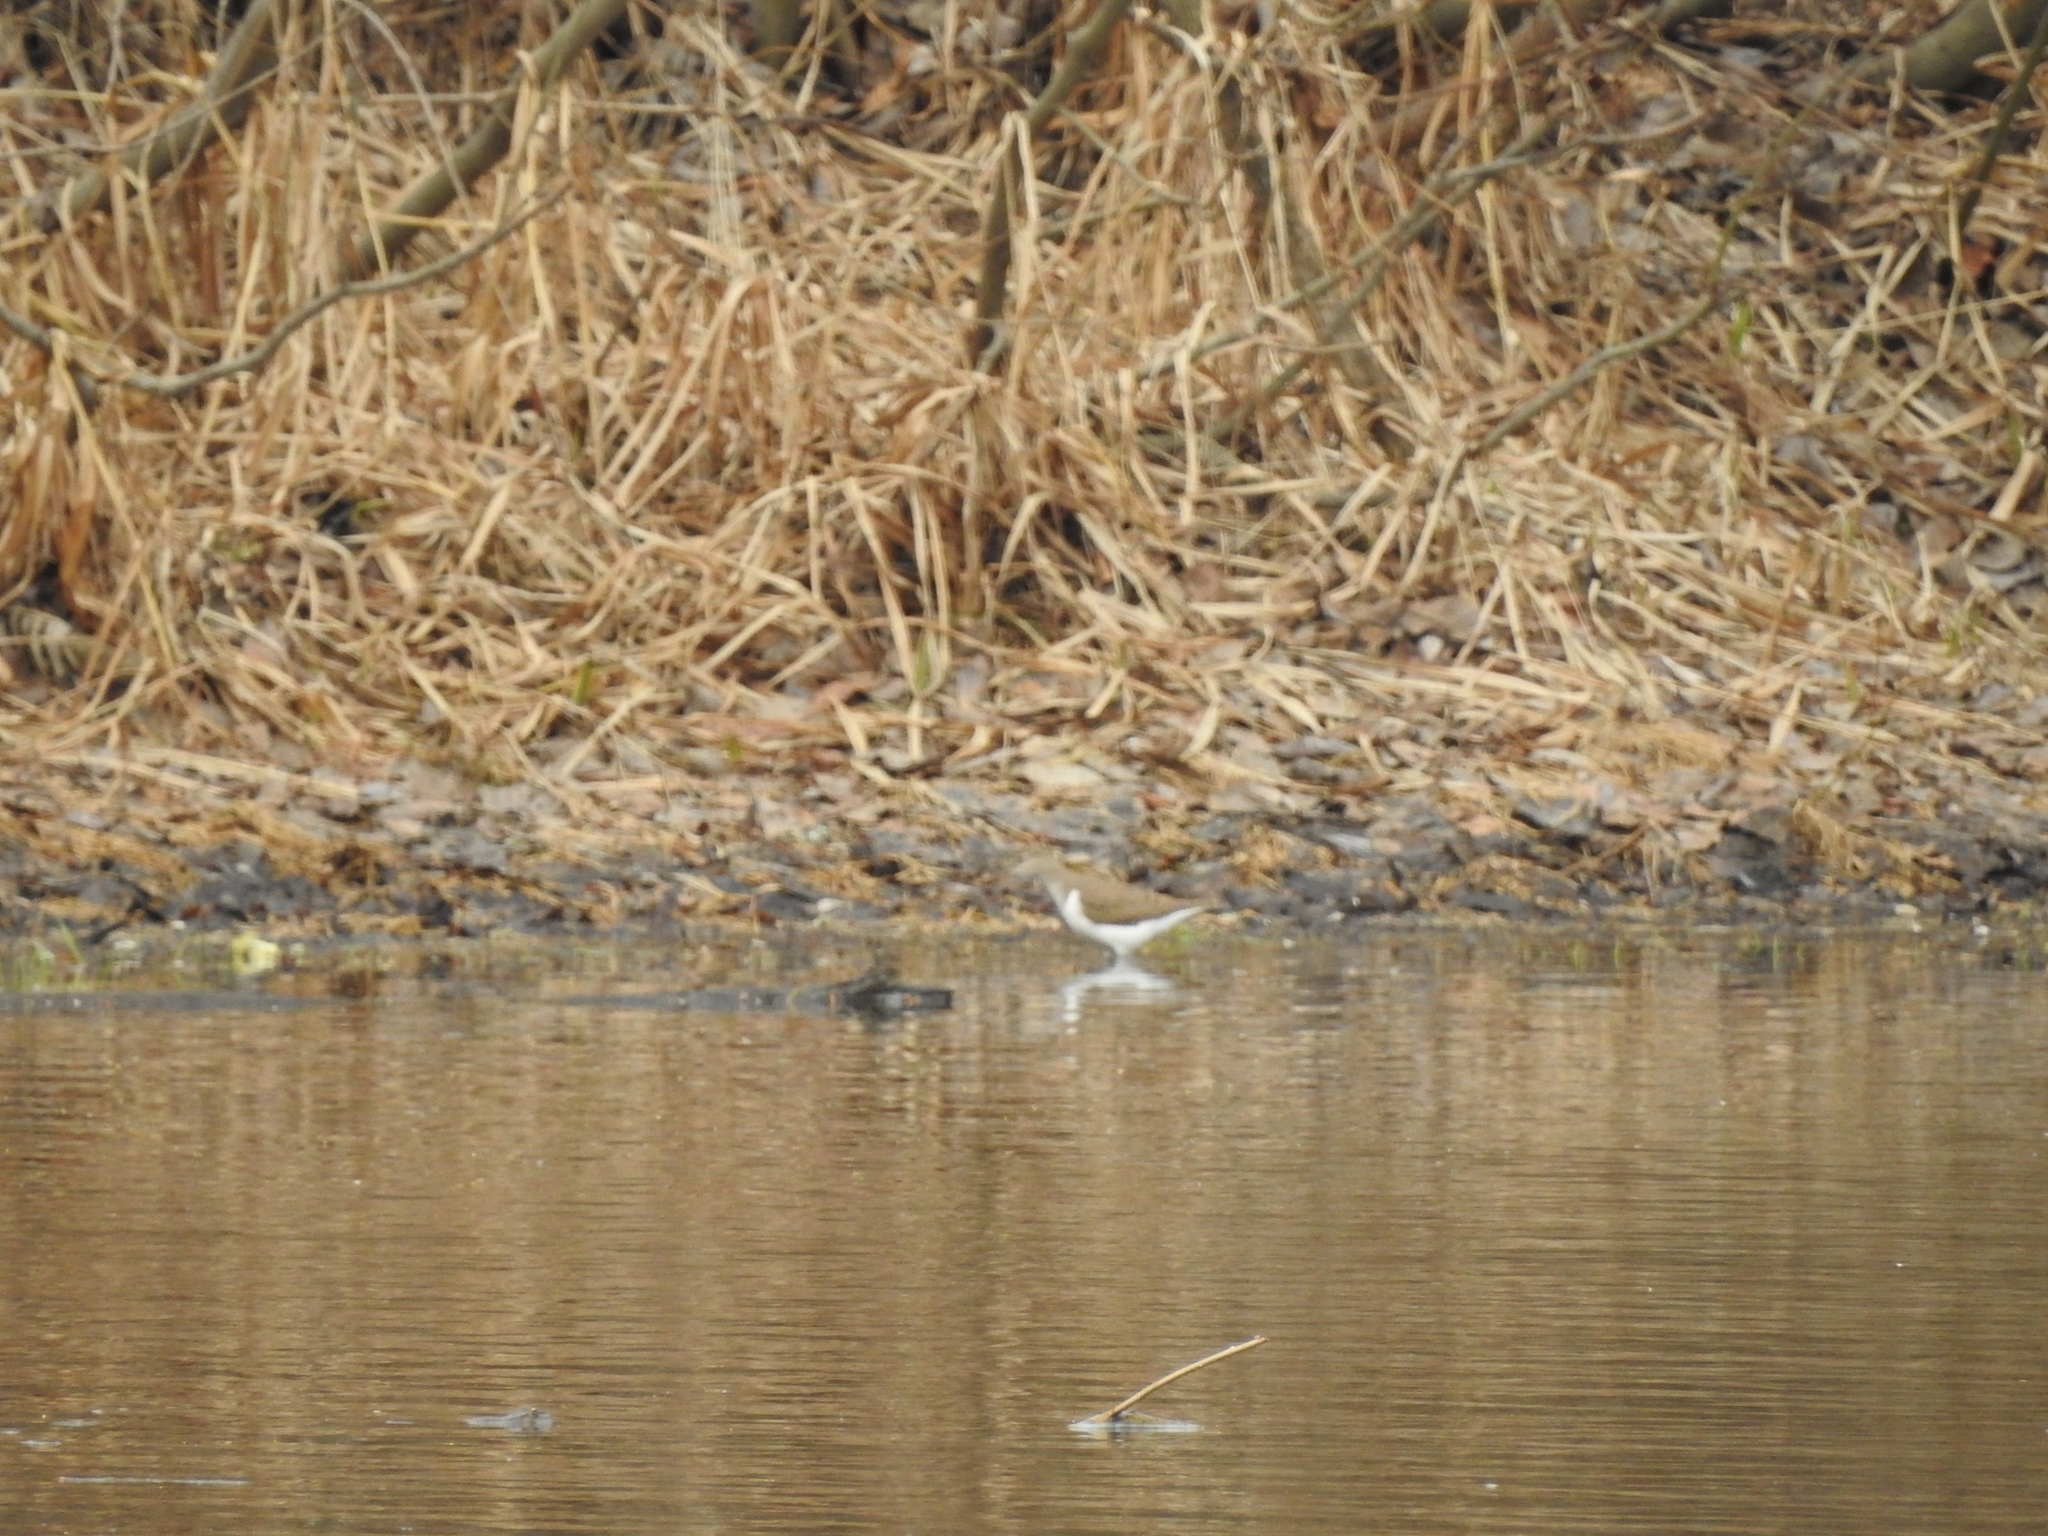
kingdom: Animalia
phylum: Chordata
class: Aves
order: Charadriiformes
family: Scolopacidae
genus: Actitis
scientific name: Actitis hypoleucos
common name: Common sandpiper
